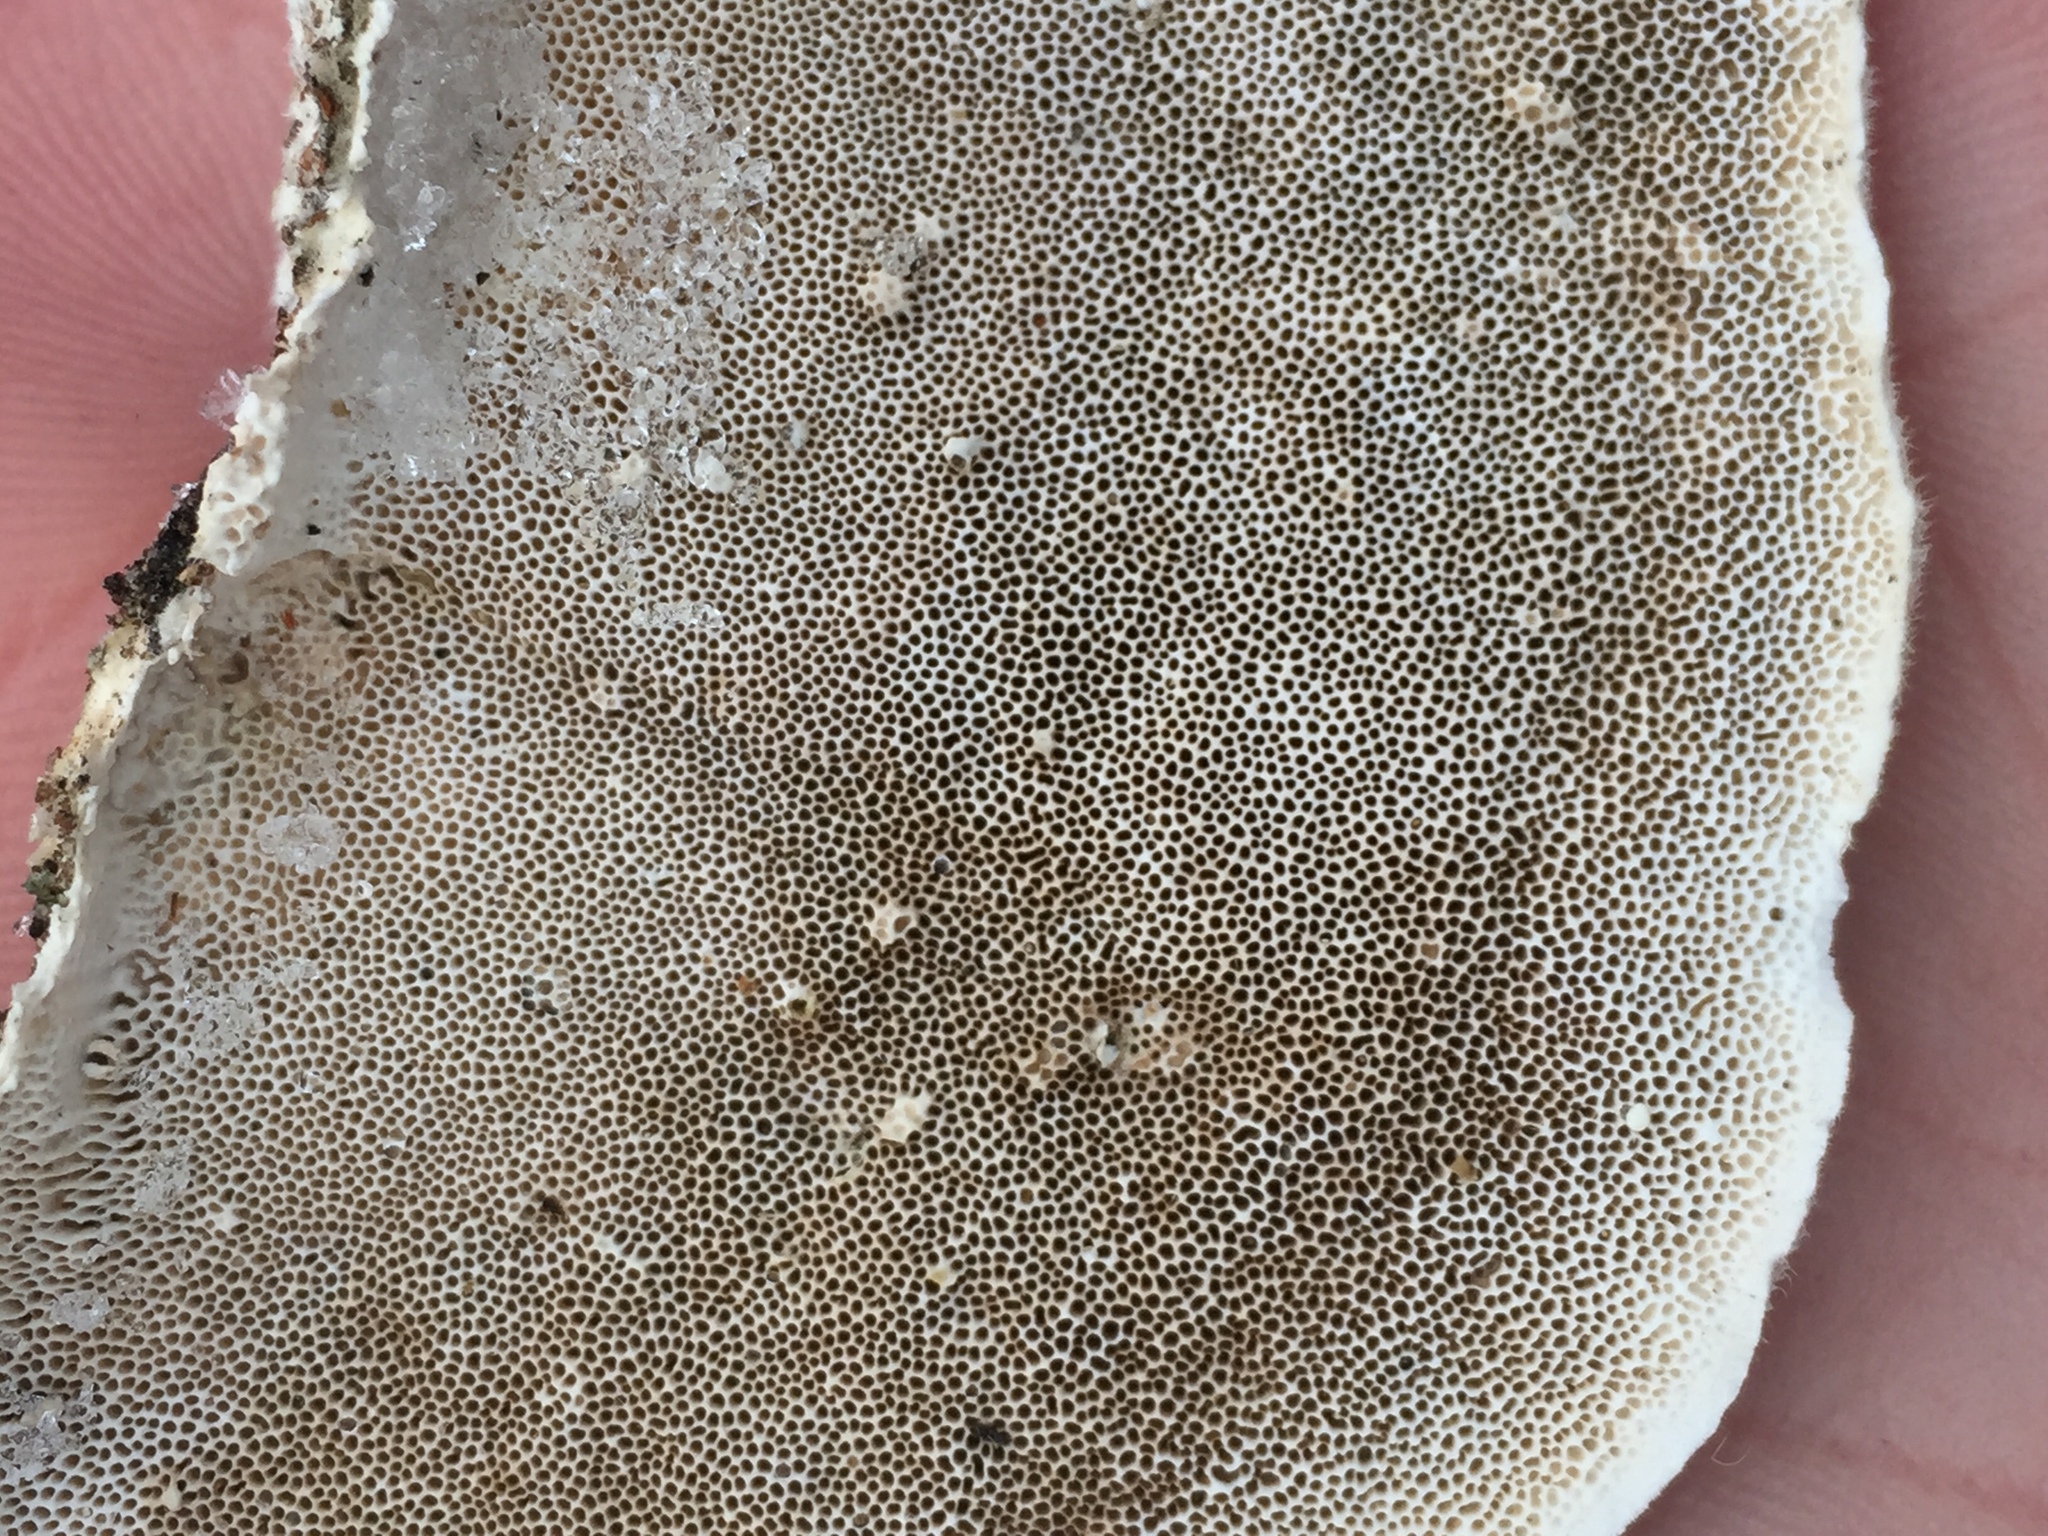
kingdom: Fungi
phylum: Basidiomycota
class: Agaricomycetes
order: Polyporales
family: Polyporaceae
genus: Trametes
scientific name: Trametes hirsuta
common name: Hairy bracket
